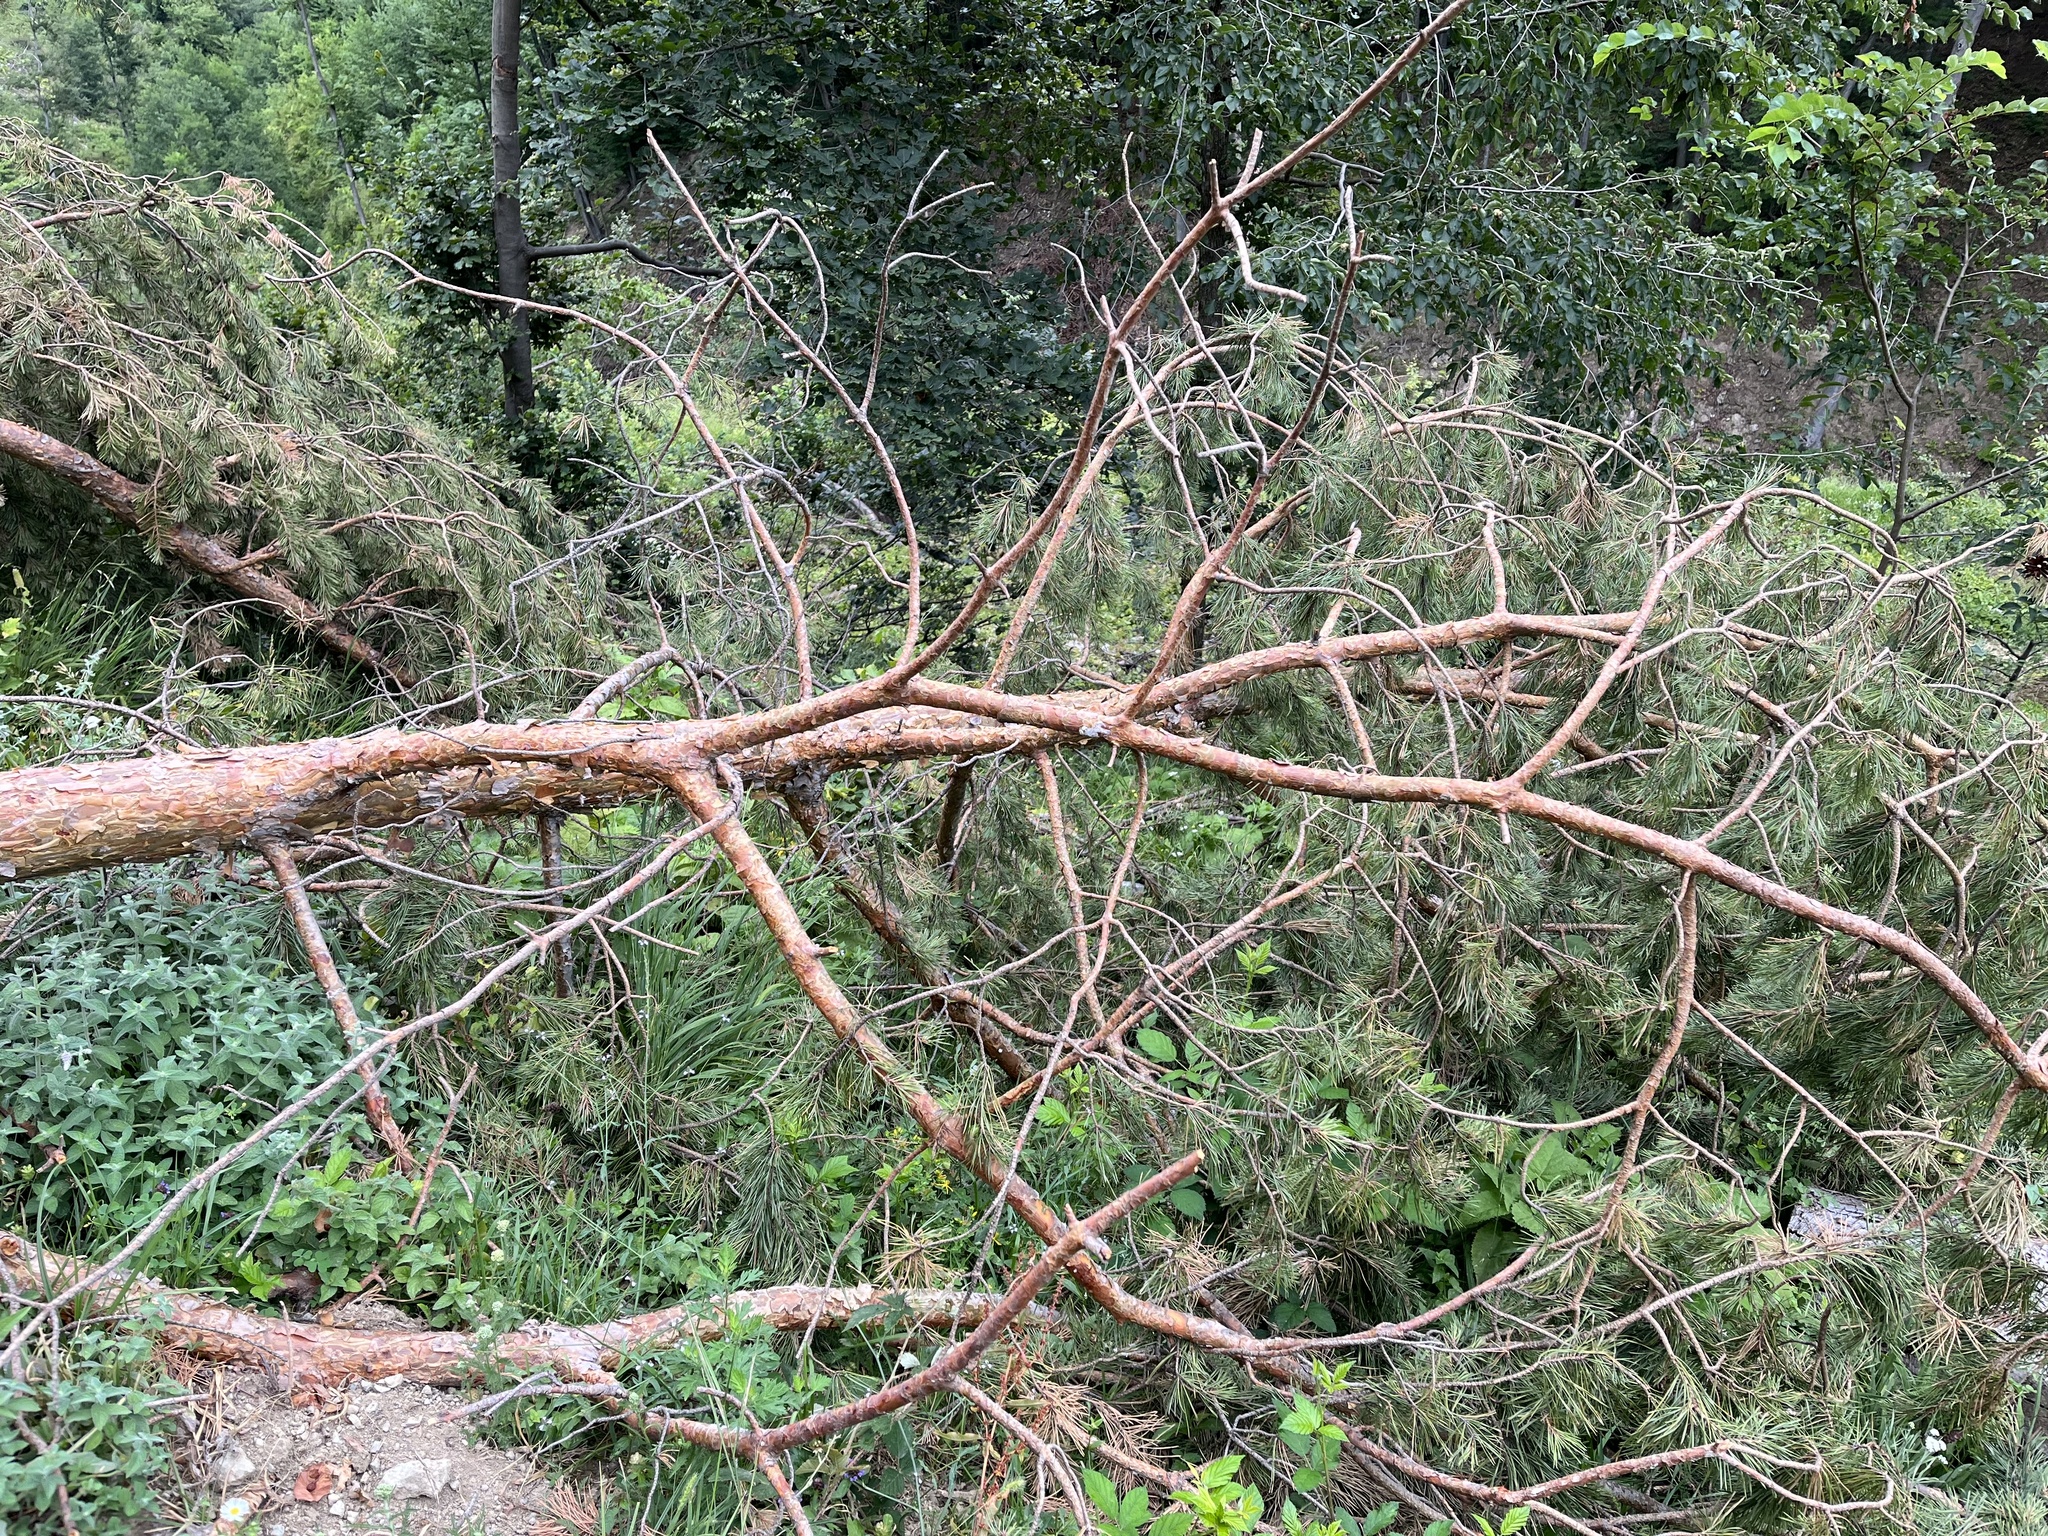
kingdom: Plantae
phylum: Tracheophyta
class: Pinopsida
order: Pinales
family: Pinaceae
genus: Pinus
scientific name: Pinus sylvestris
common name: Scots pine
